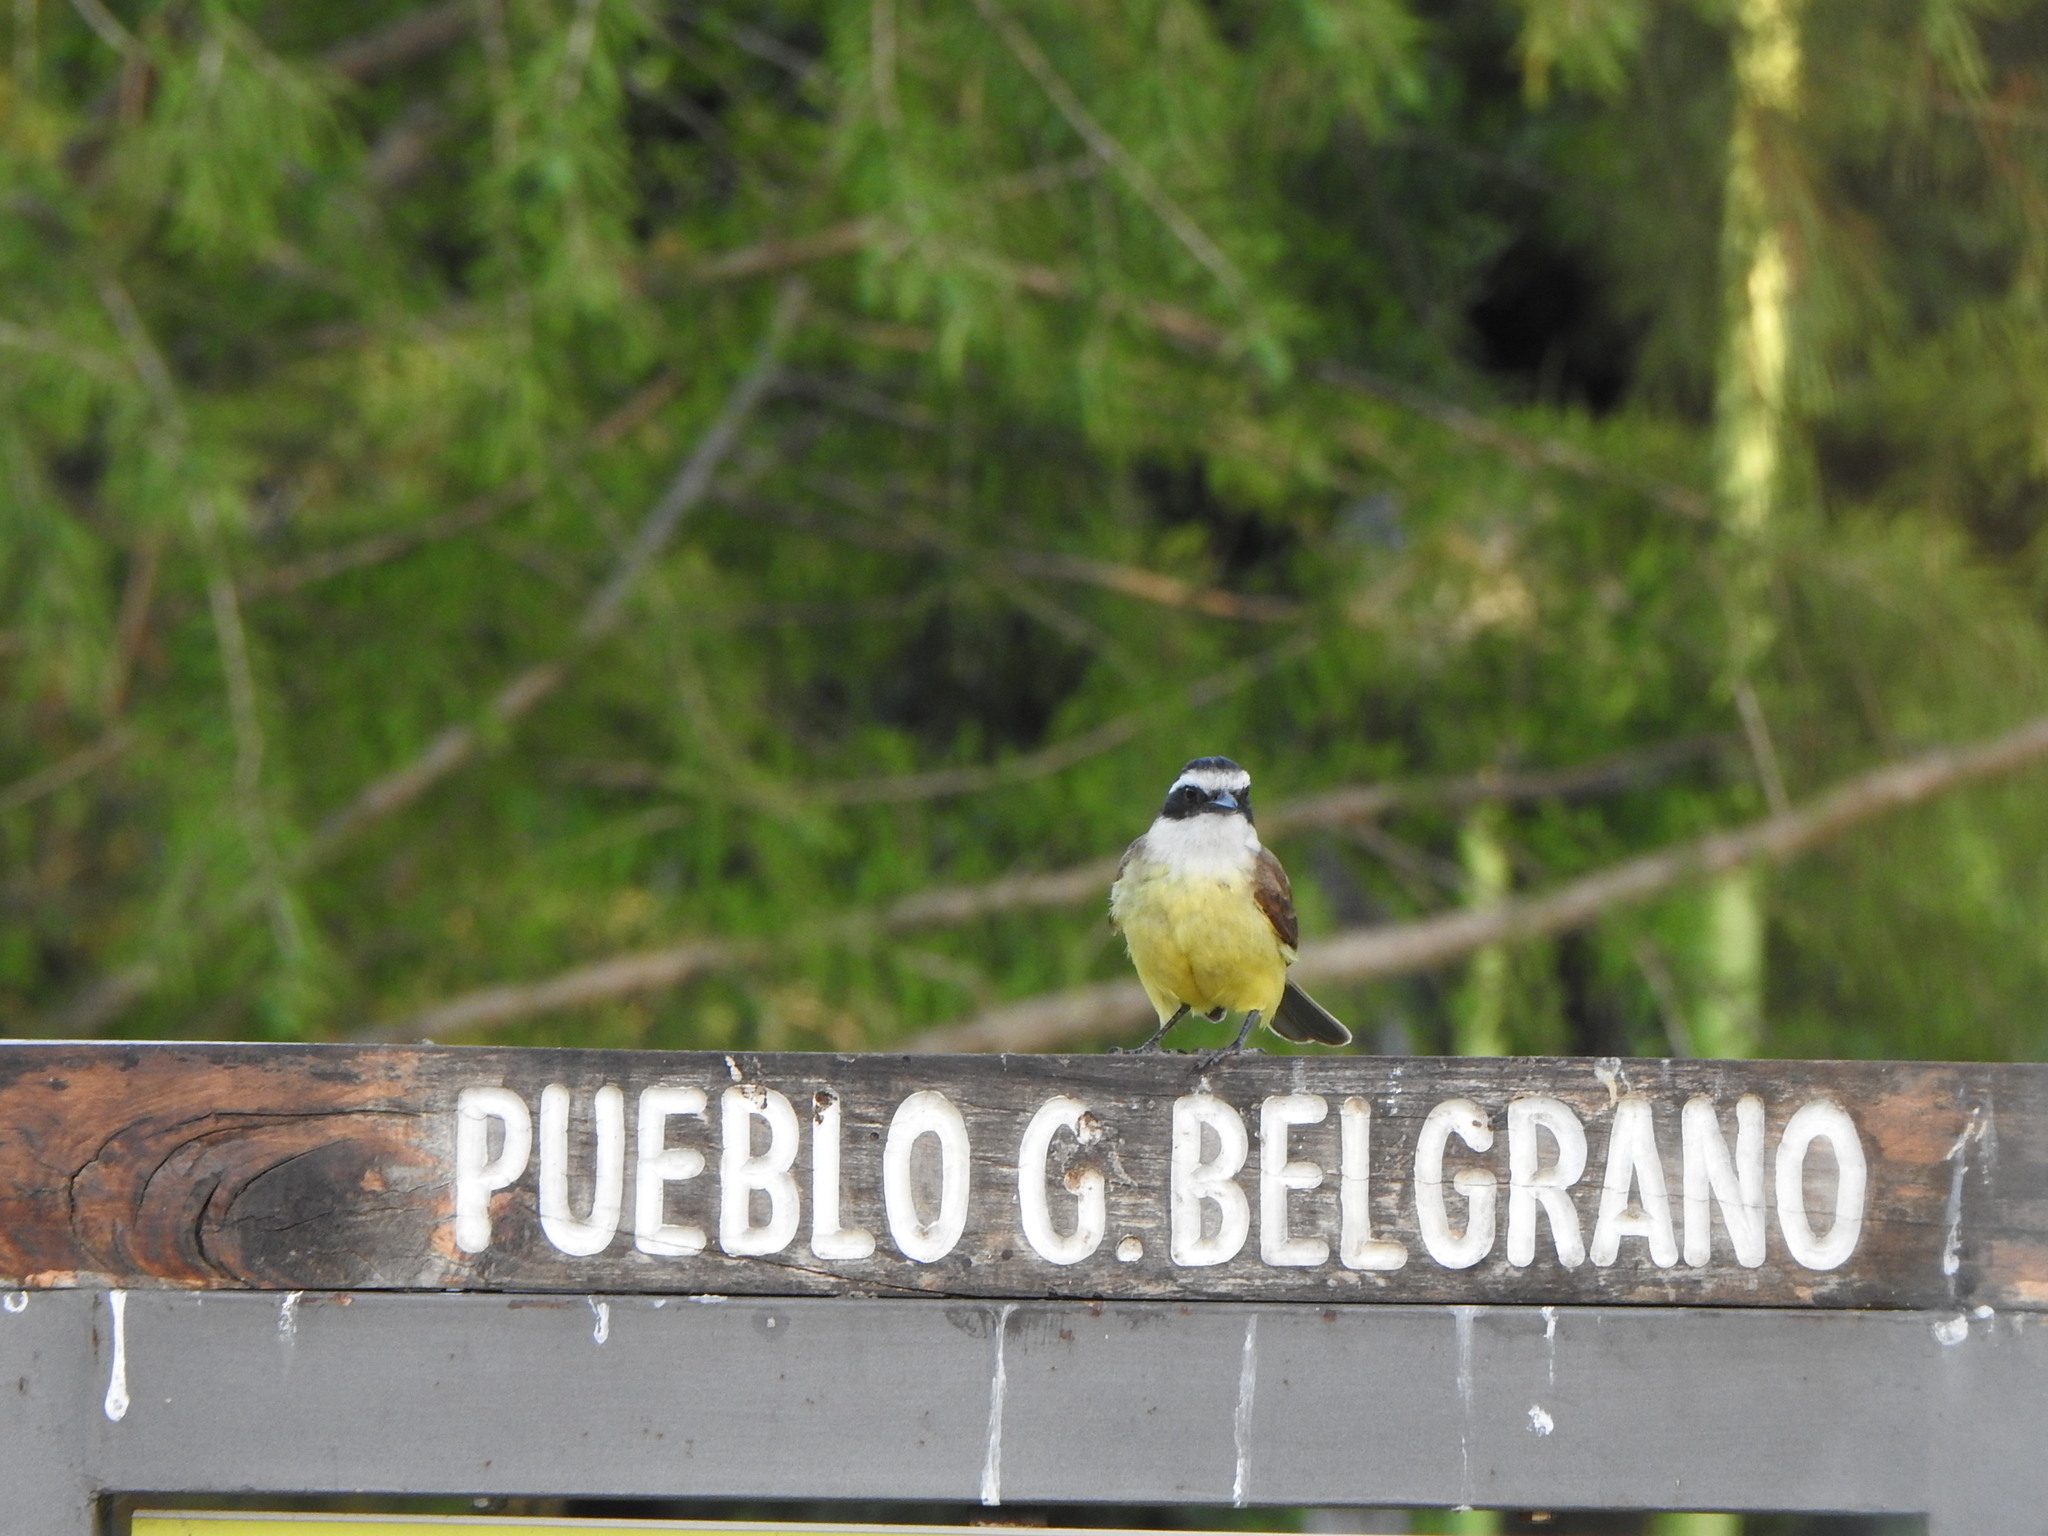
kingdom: Animalia
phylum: Chordata
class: Aves
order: Passeriformes
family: Tyrannidae
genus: Pitangus
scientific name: Pitangus sulphuratus
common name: Great kiskadee
